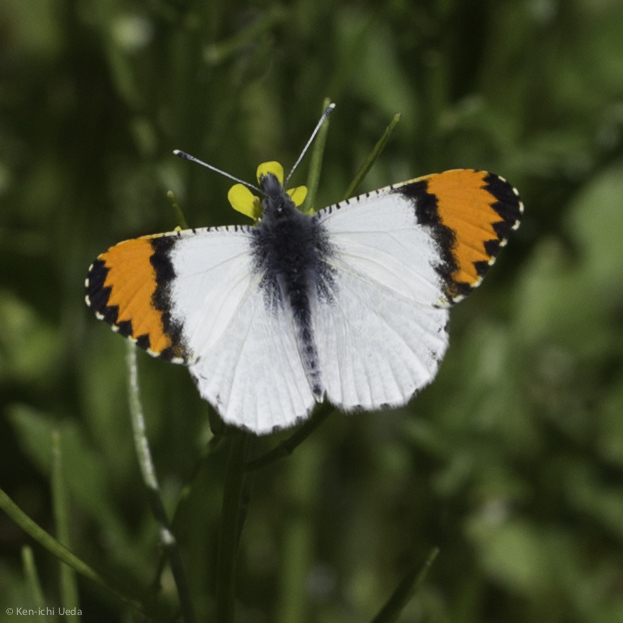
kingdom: Animalia
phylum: Arthropoda
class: Insecta
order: Lepidoptera
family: Pieridae
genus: Anthocharis
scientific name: Anthocharis sara
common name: Sara's orangetip
